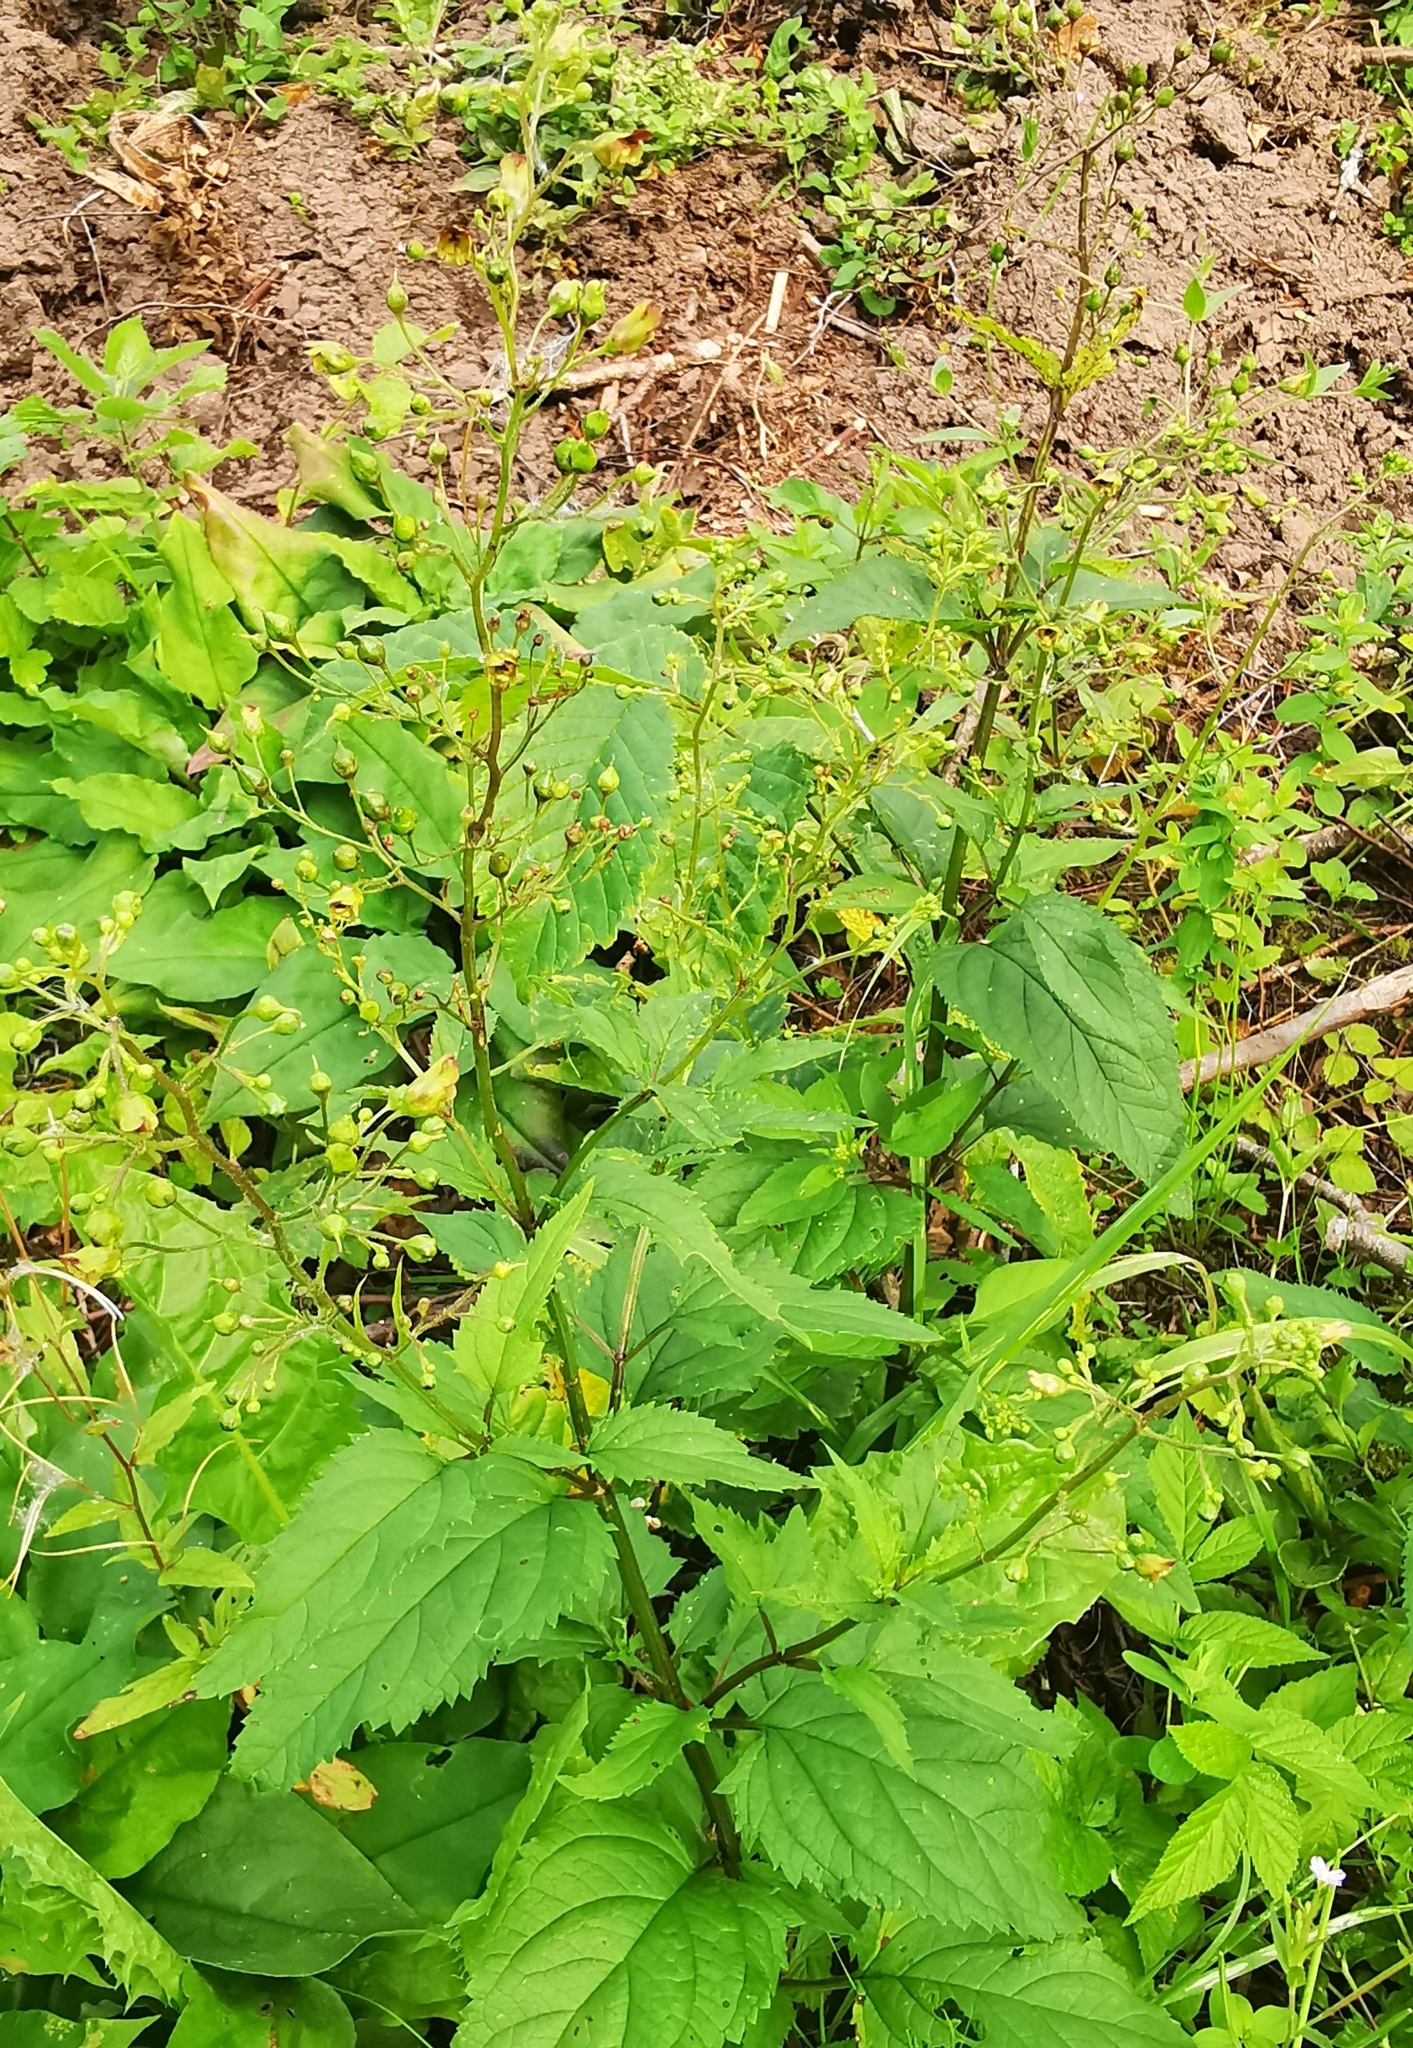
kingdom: Plantae
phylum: Tracheophyta
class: Magnoliopsida
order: Lamiales
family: Scrophulariaceae
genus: Scrophularia
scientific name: Scrophularia nodosa
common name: Common figwort
